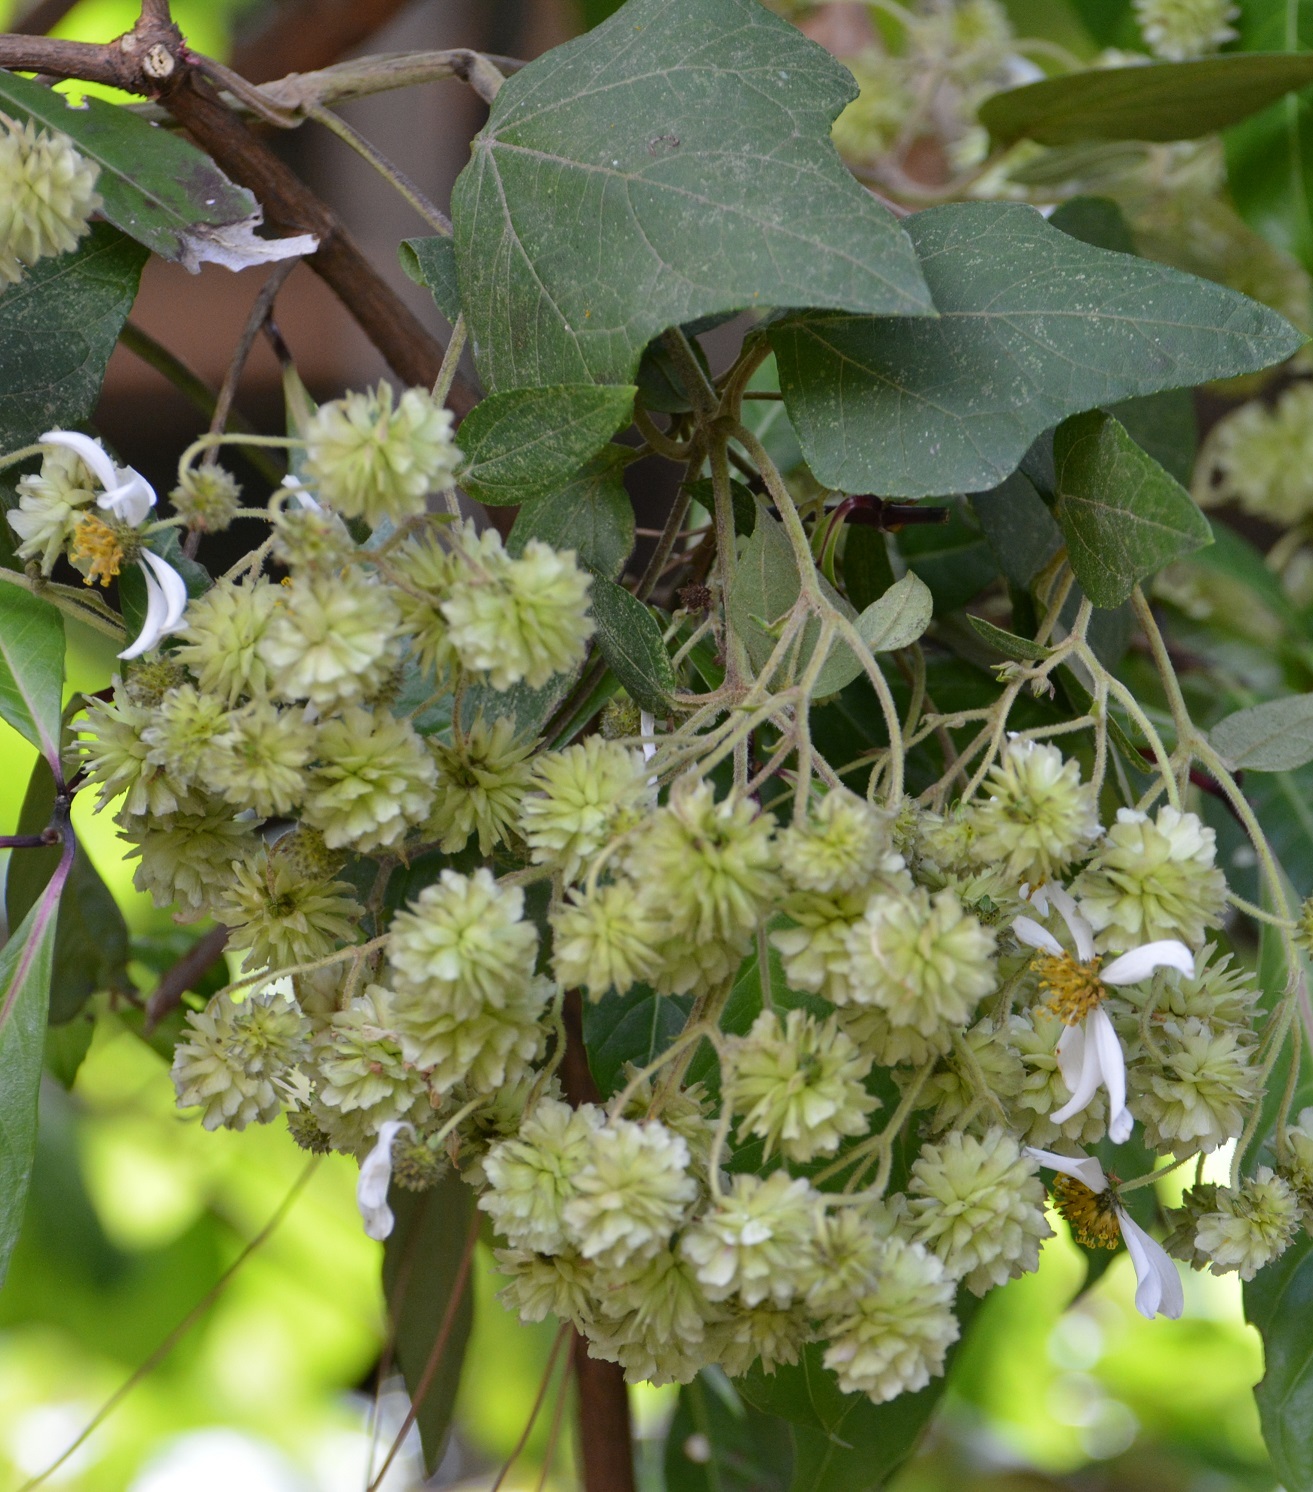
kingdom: Plantae
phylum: Tracheophyta
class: Magnoliopsida
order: Asterales
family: Asteraceae
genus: Montanoa
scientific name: Montanoa pteropoda
